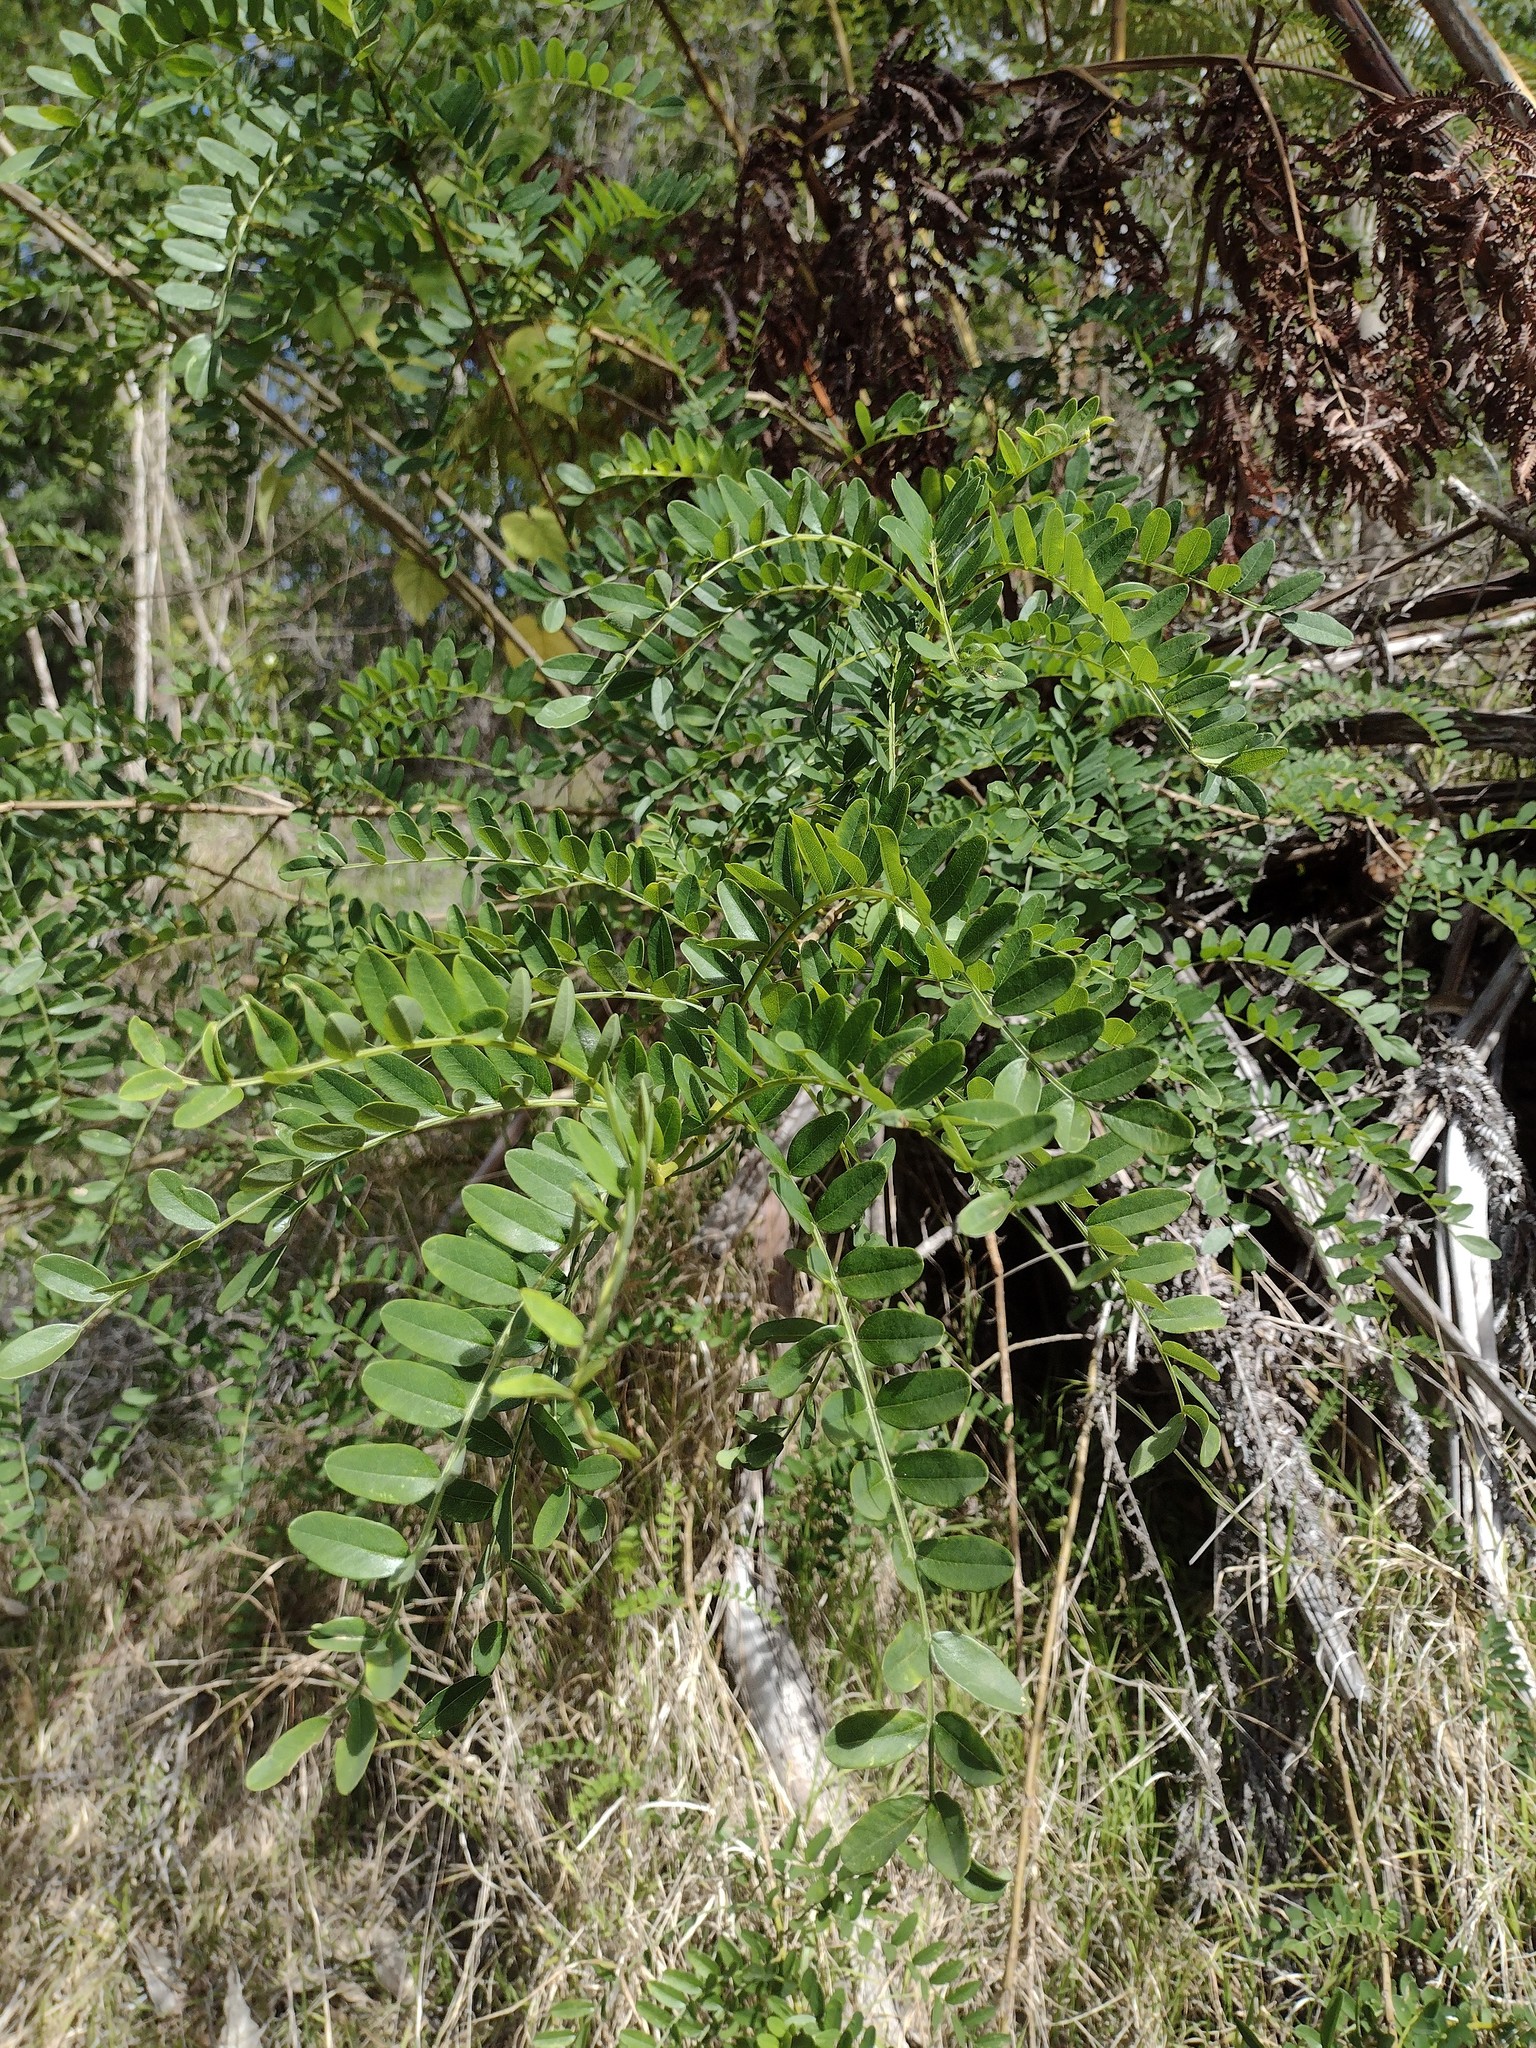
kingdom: Plantae
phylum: Tracheophyta
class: Magnoliopsida
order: Fabales
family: Fabaceae
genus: Sophora
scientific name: Sophora chrysophylla
